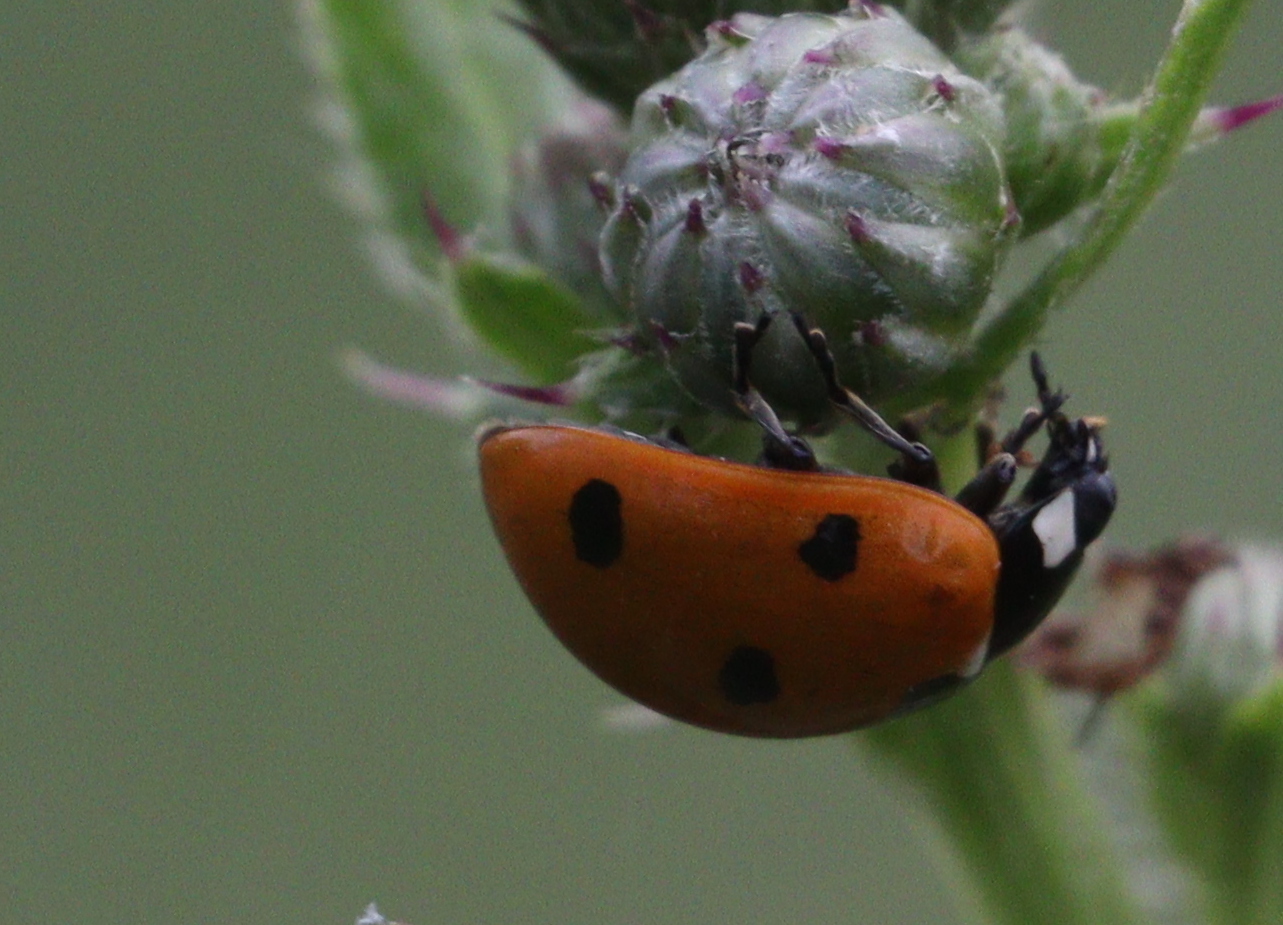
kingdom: Animalia
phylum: Arthropoda
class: Insecta
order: Coleoptera
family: Coccinellidae
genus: Coccinella
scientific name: Coccinella septempunctata
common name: Sevenspotted lady beetle
